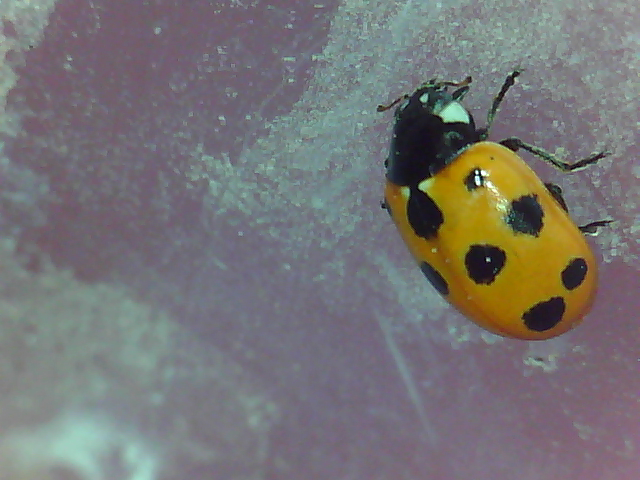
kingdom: Animalia
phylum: Arthropoda
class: Insecta
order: Coleoptera
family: Coccinellidae
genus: Coccinella
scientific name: Coccinella undecimpunctata
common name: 11-spot ladybird
